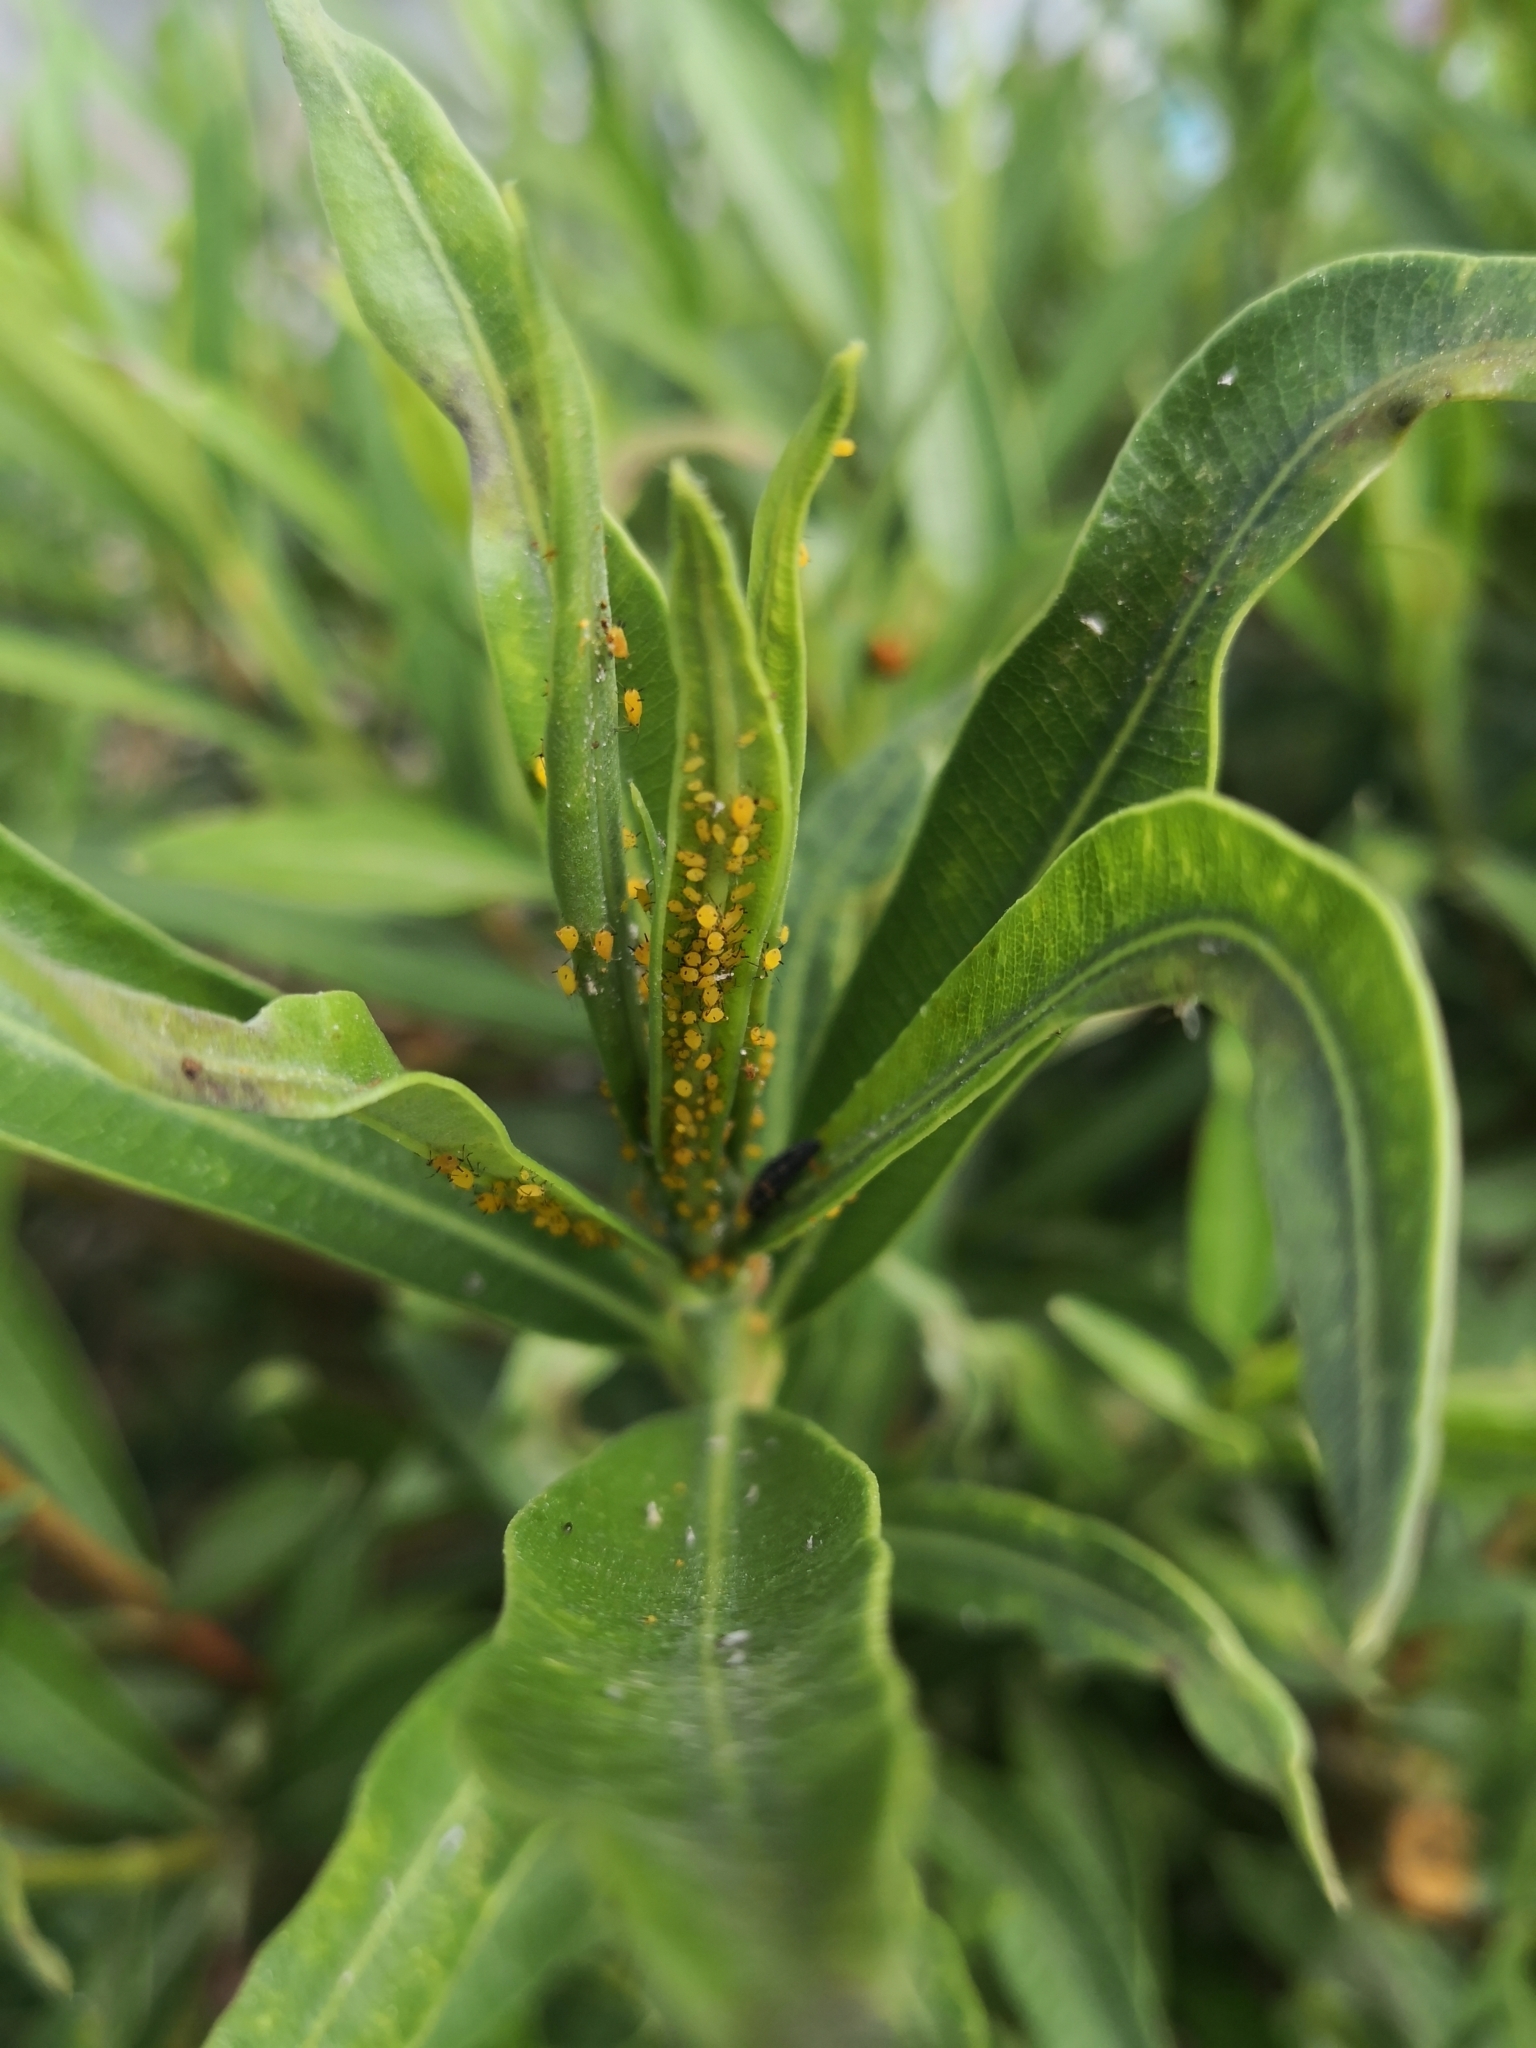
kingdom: Animalia
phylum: Arthropoda
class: Insecta
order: Hemiptera
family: Aphididae
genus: Aphis
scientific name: Aphis nerii
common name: Oleander aphid
